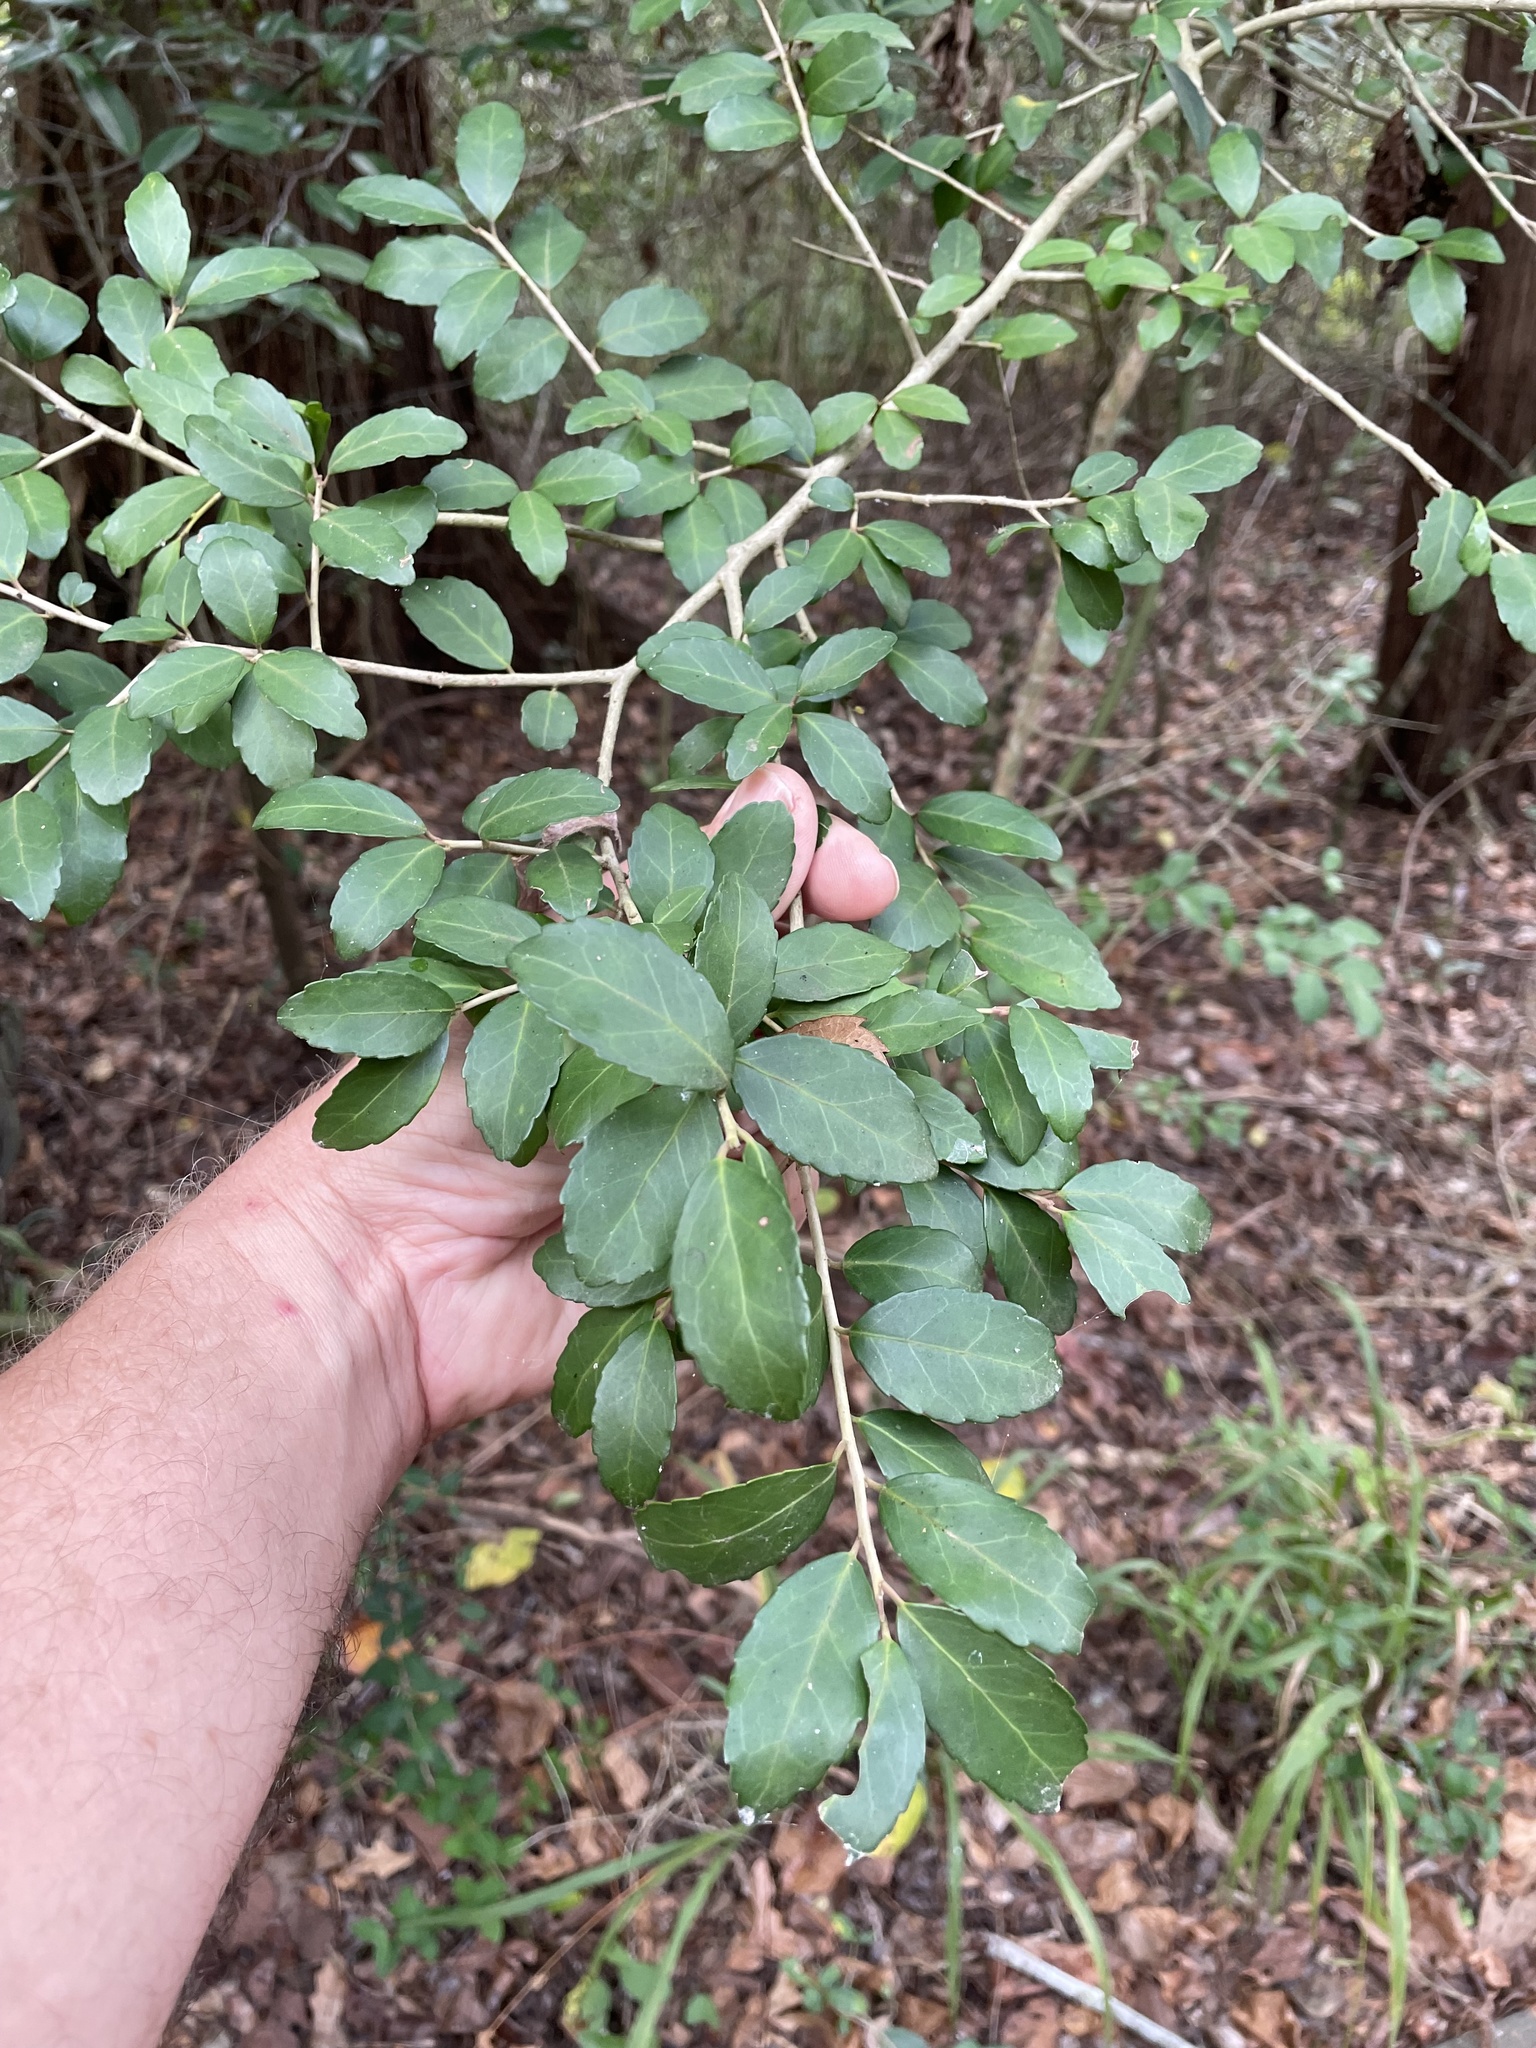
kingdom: Plantae
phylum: Tracheophyta
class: Magnoliopsida
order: Aquifoliales
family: Aquifoliaceae
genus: Ilex
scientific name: Ilex vomitoria
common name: Yaupon holly
